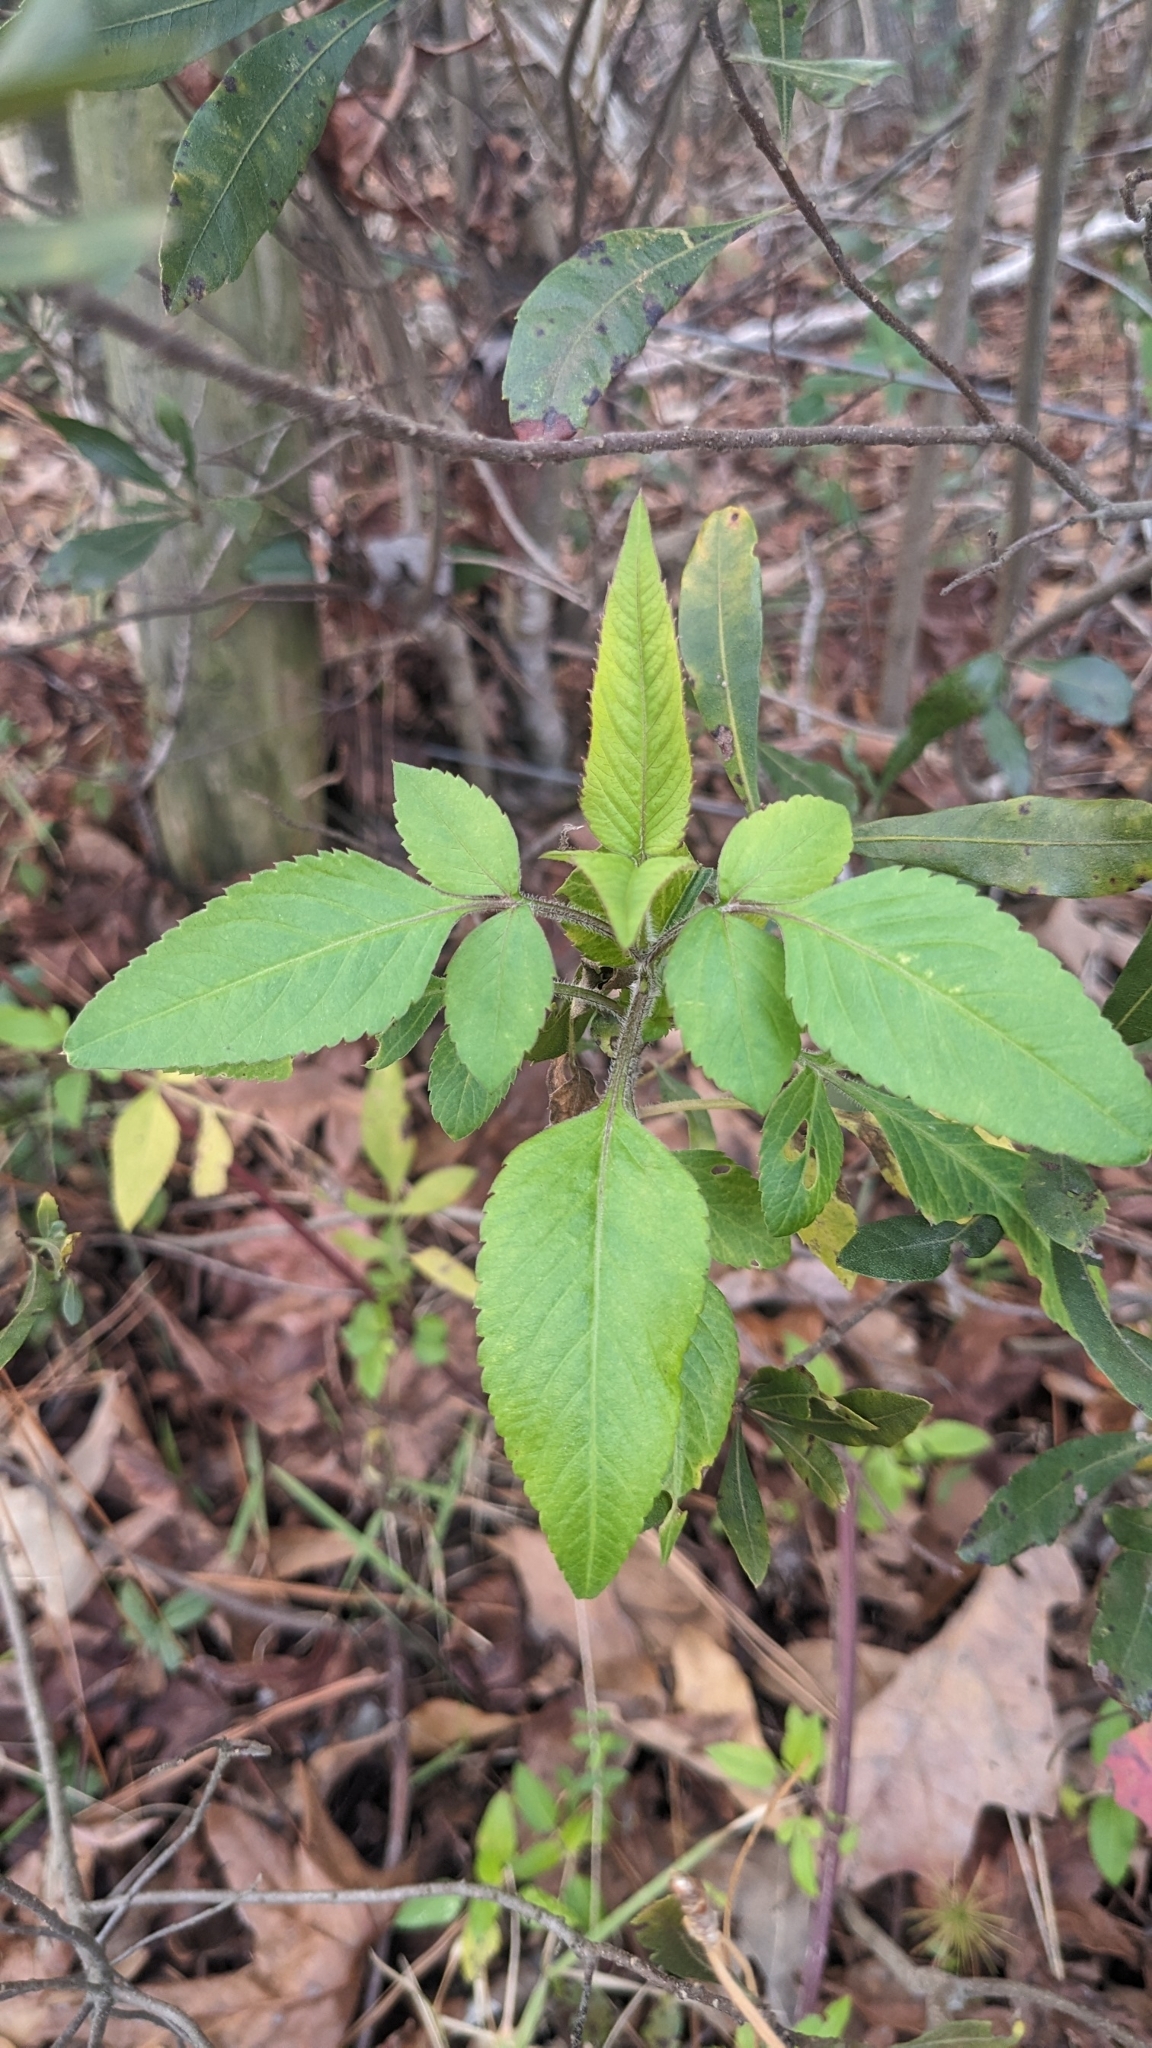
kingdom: Plantae
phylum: Tracheophyta
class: Magnoliopsida
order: Asterales
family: Asteraceae
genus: Bidens
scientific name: Bidens alba
